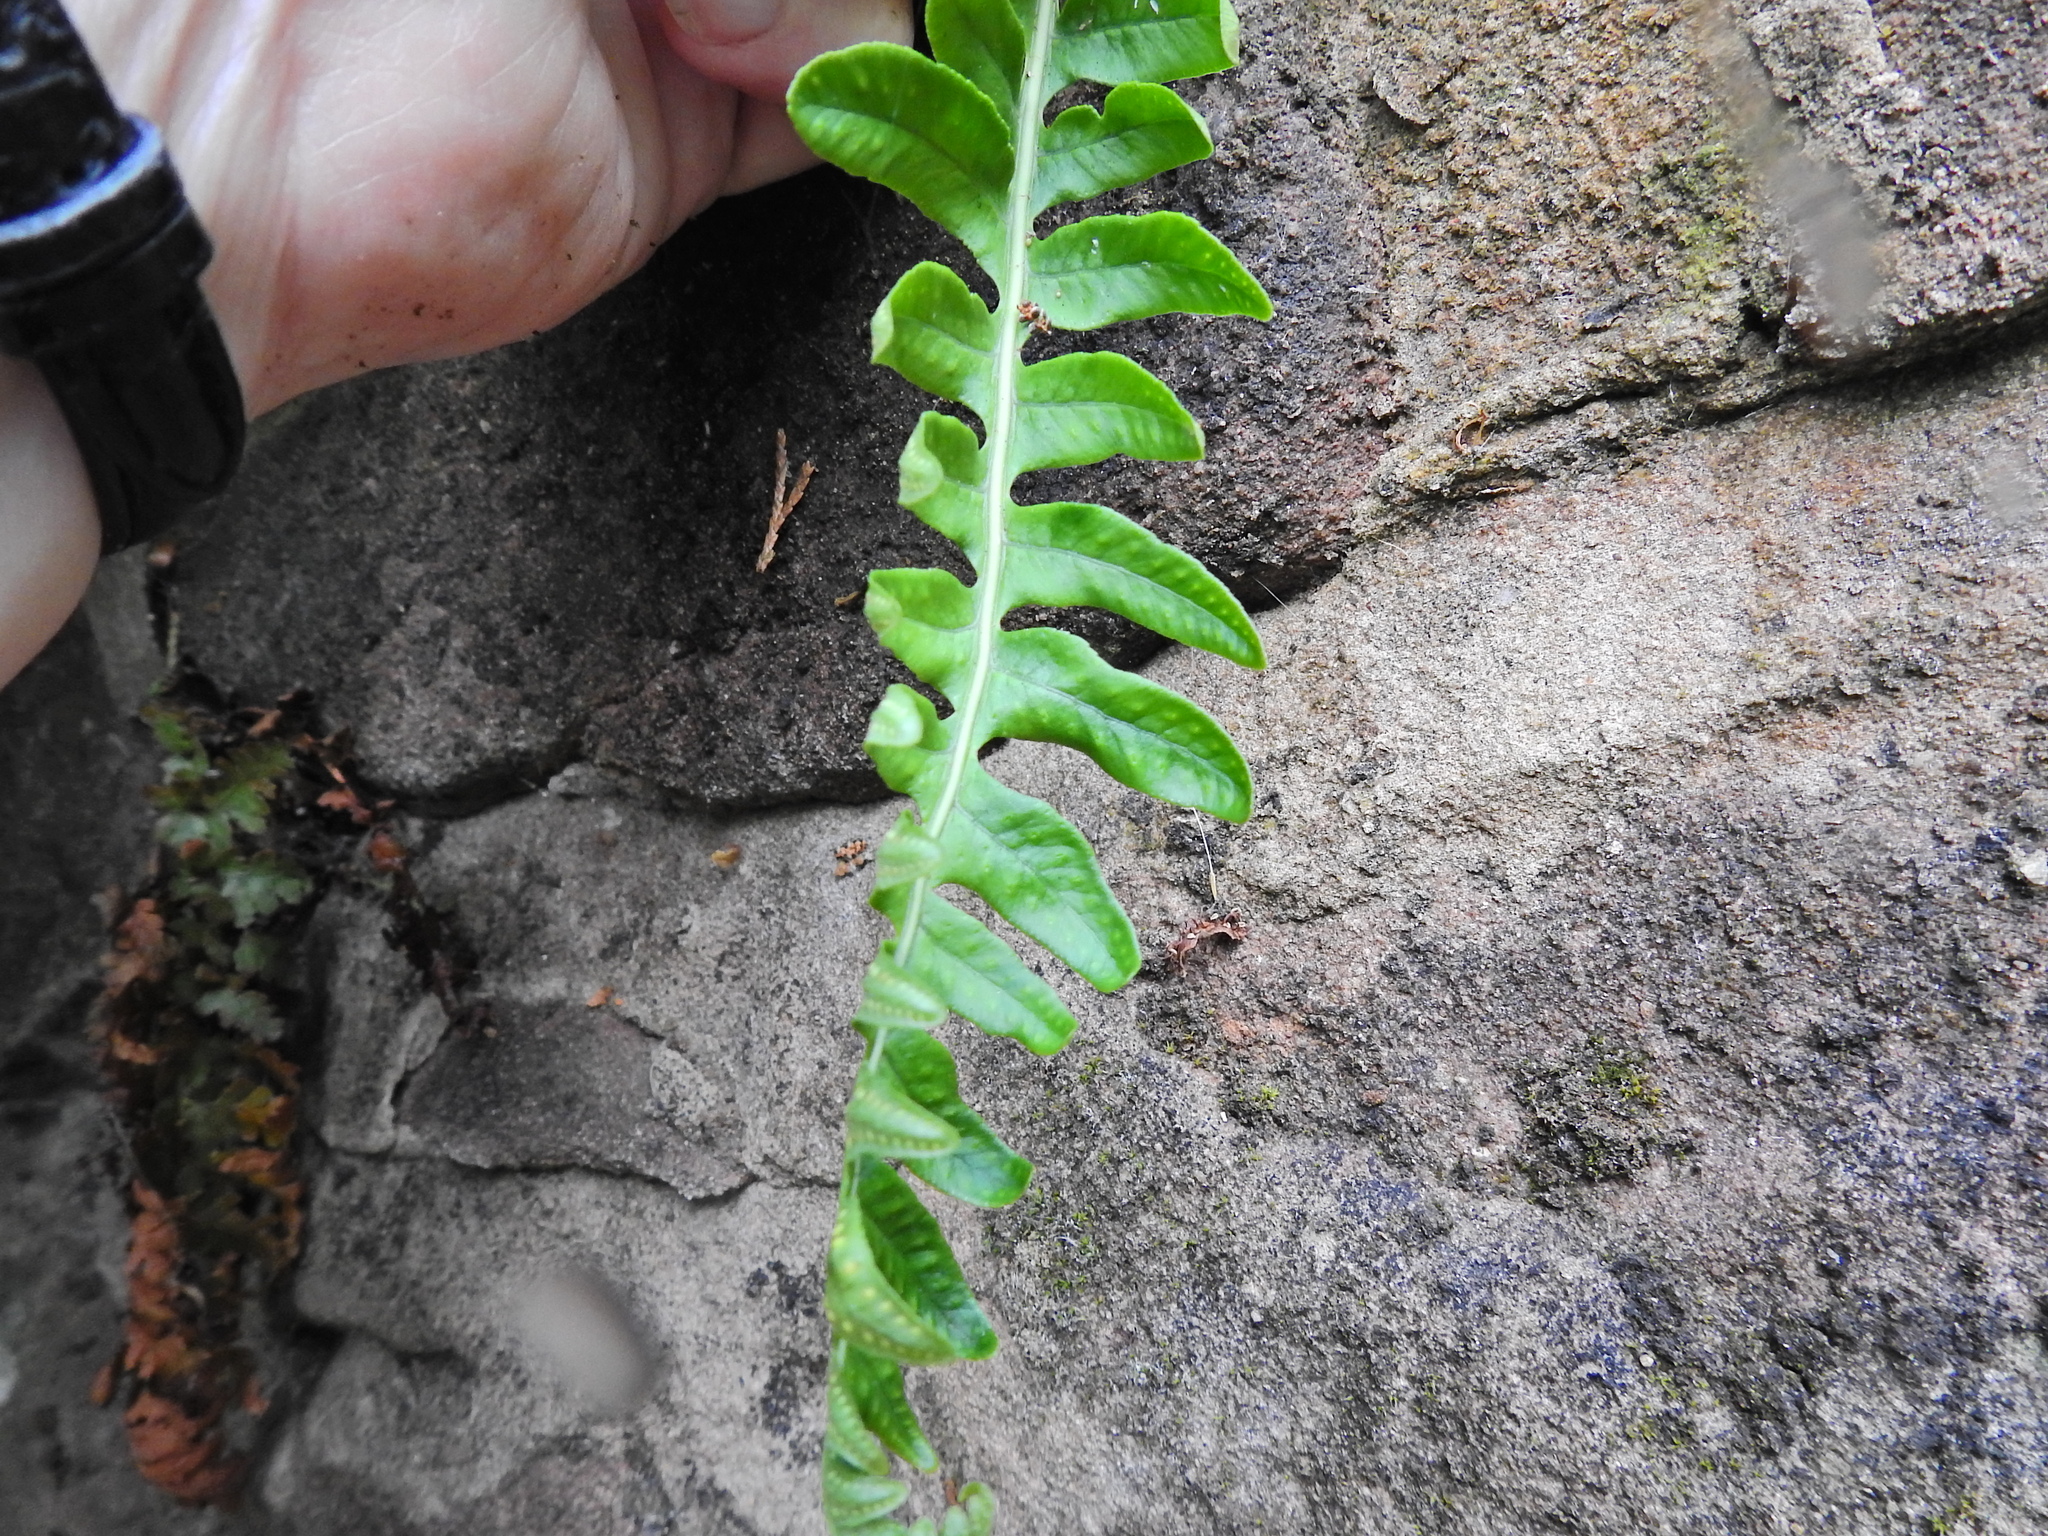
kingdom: Plantae
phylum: Tracheophyta
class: Polypodiopsida
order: Polypodiales
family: Polypodiaceae
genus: Polypodium
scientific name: Polypodium vulgare
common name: Common polypody
